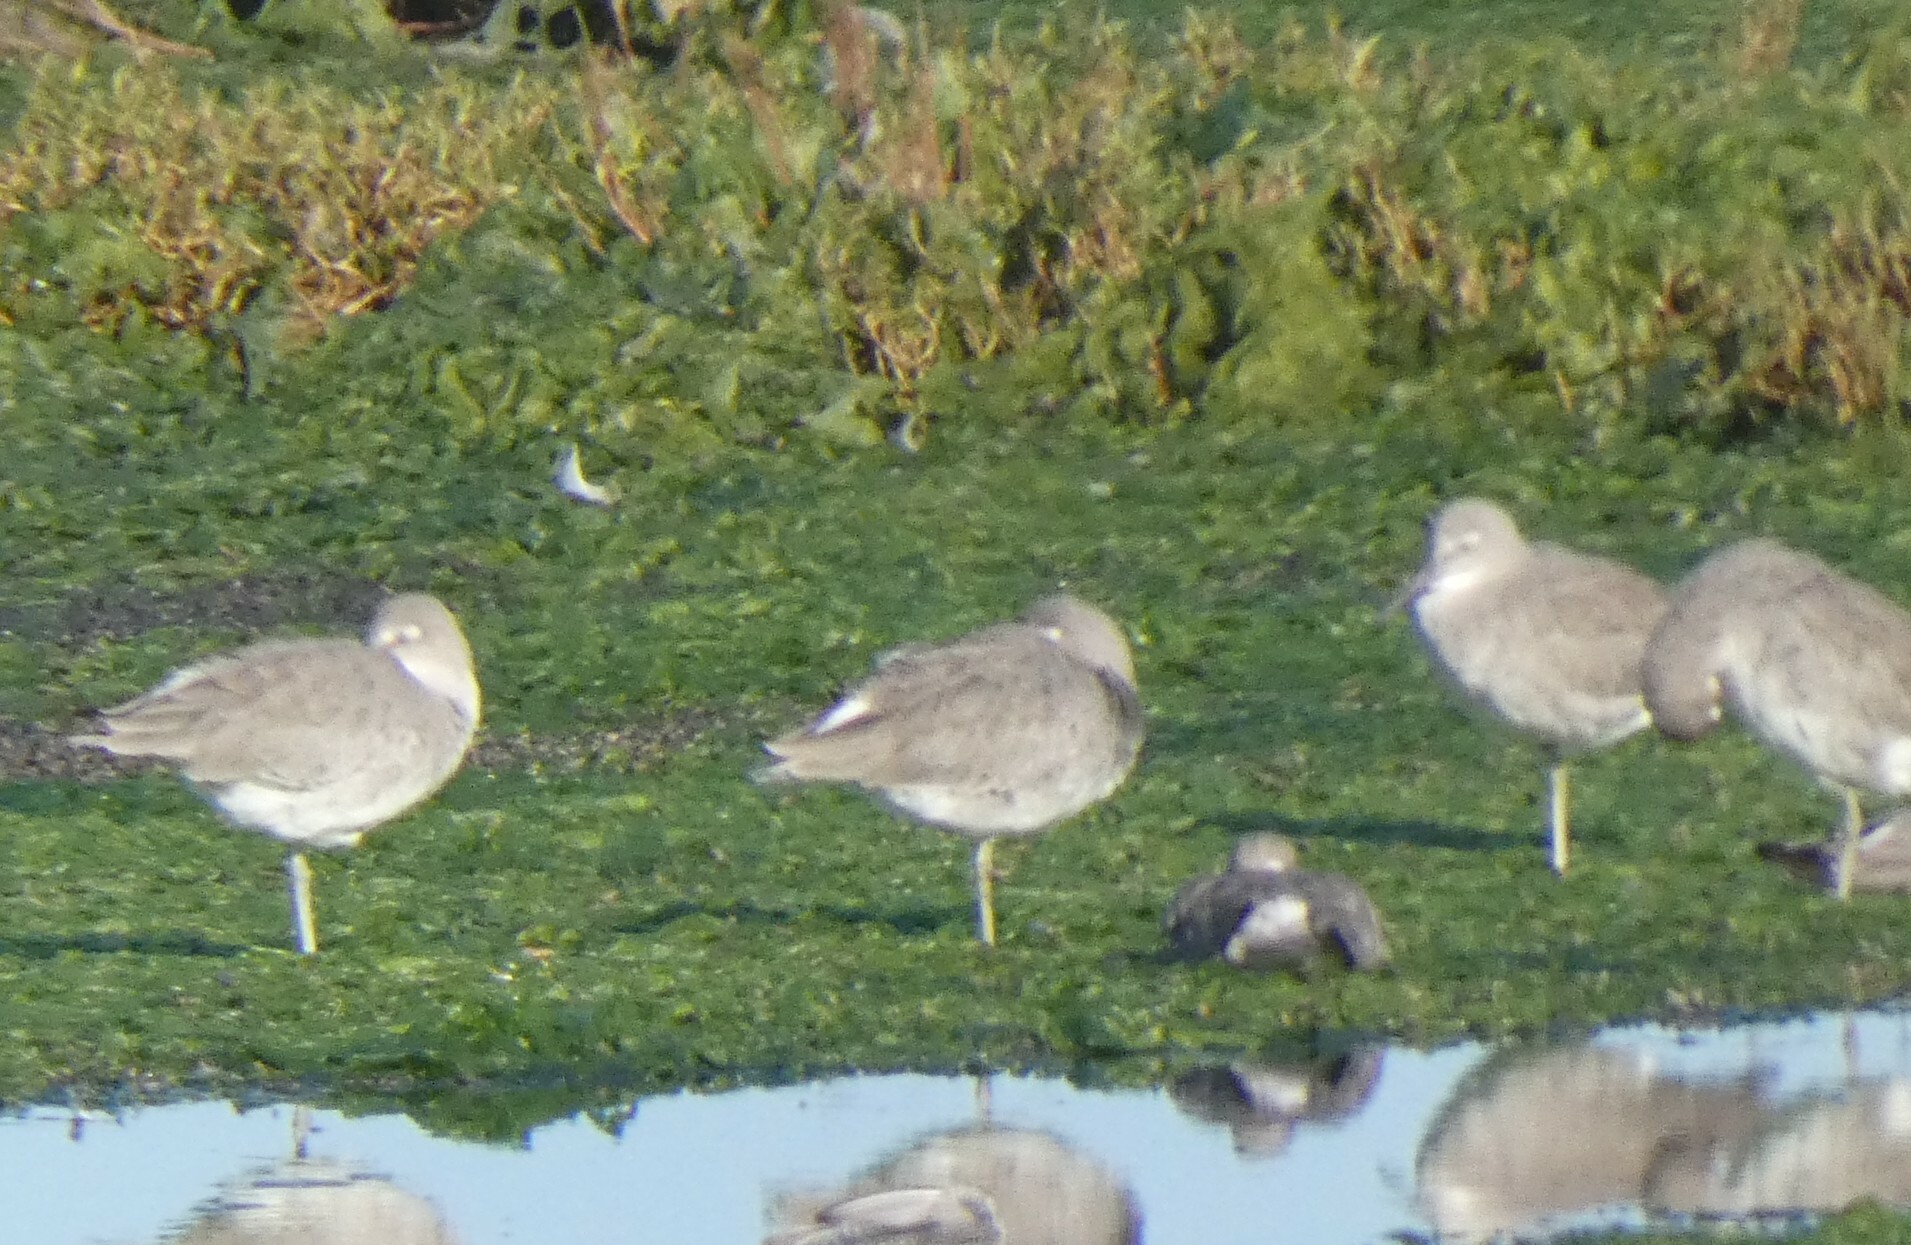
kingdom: Animalia
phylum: Chordata
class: Aves
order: Charadriiformes
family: Scolopacidae
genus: Tringa
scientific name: Tringa semipalmata
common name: Willet
